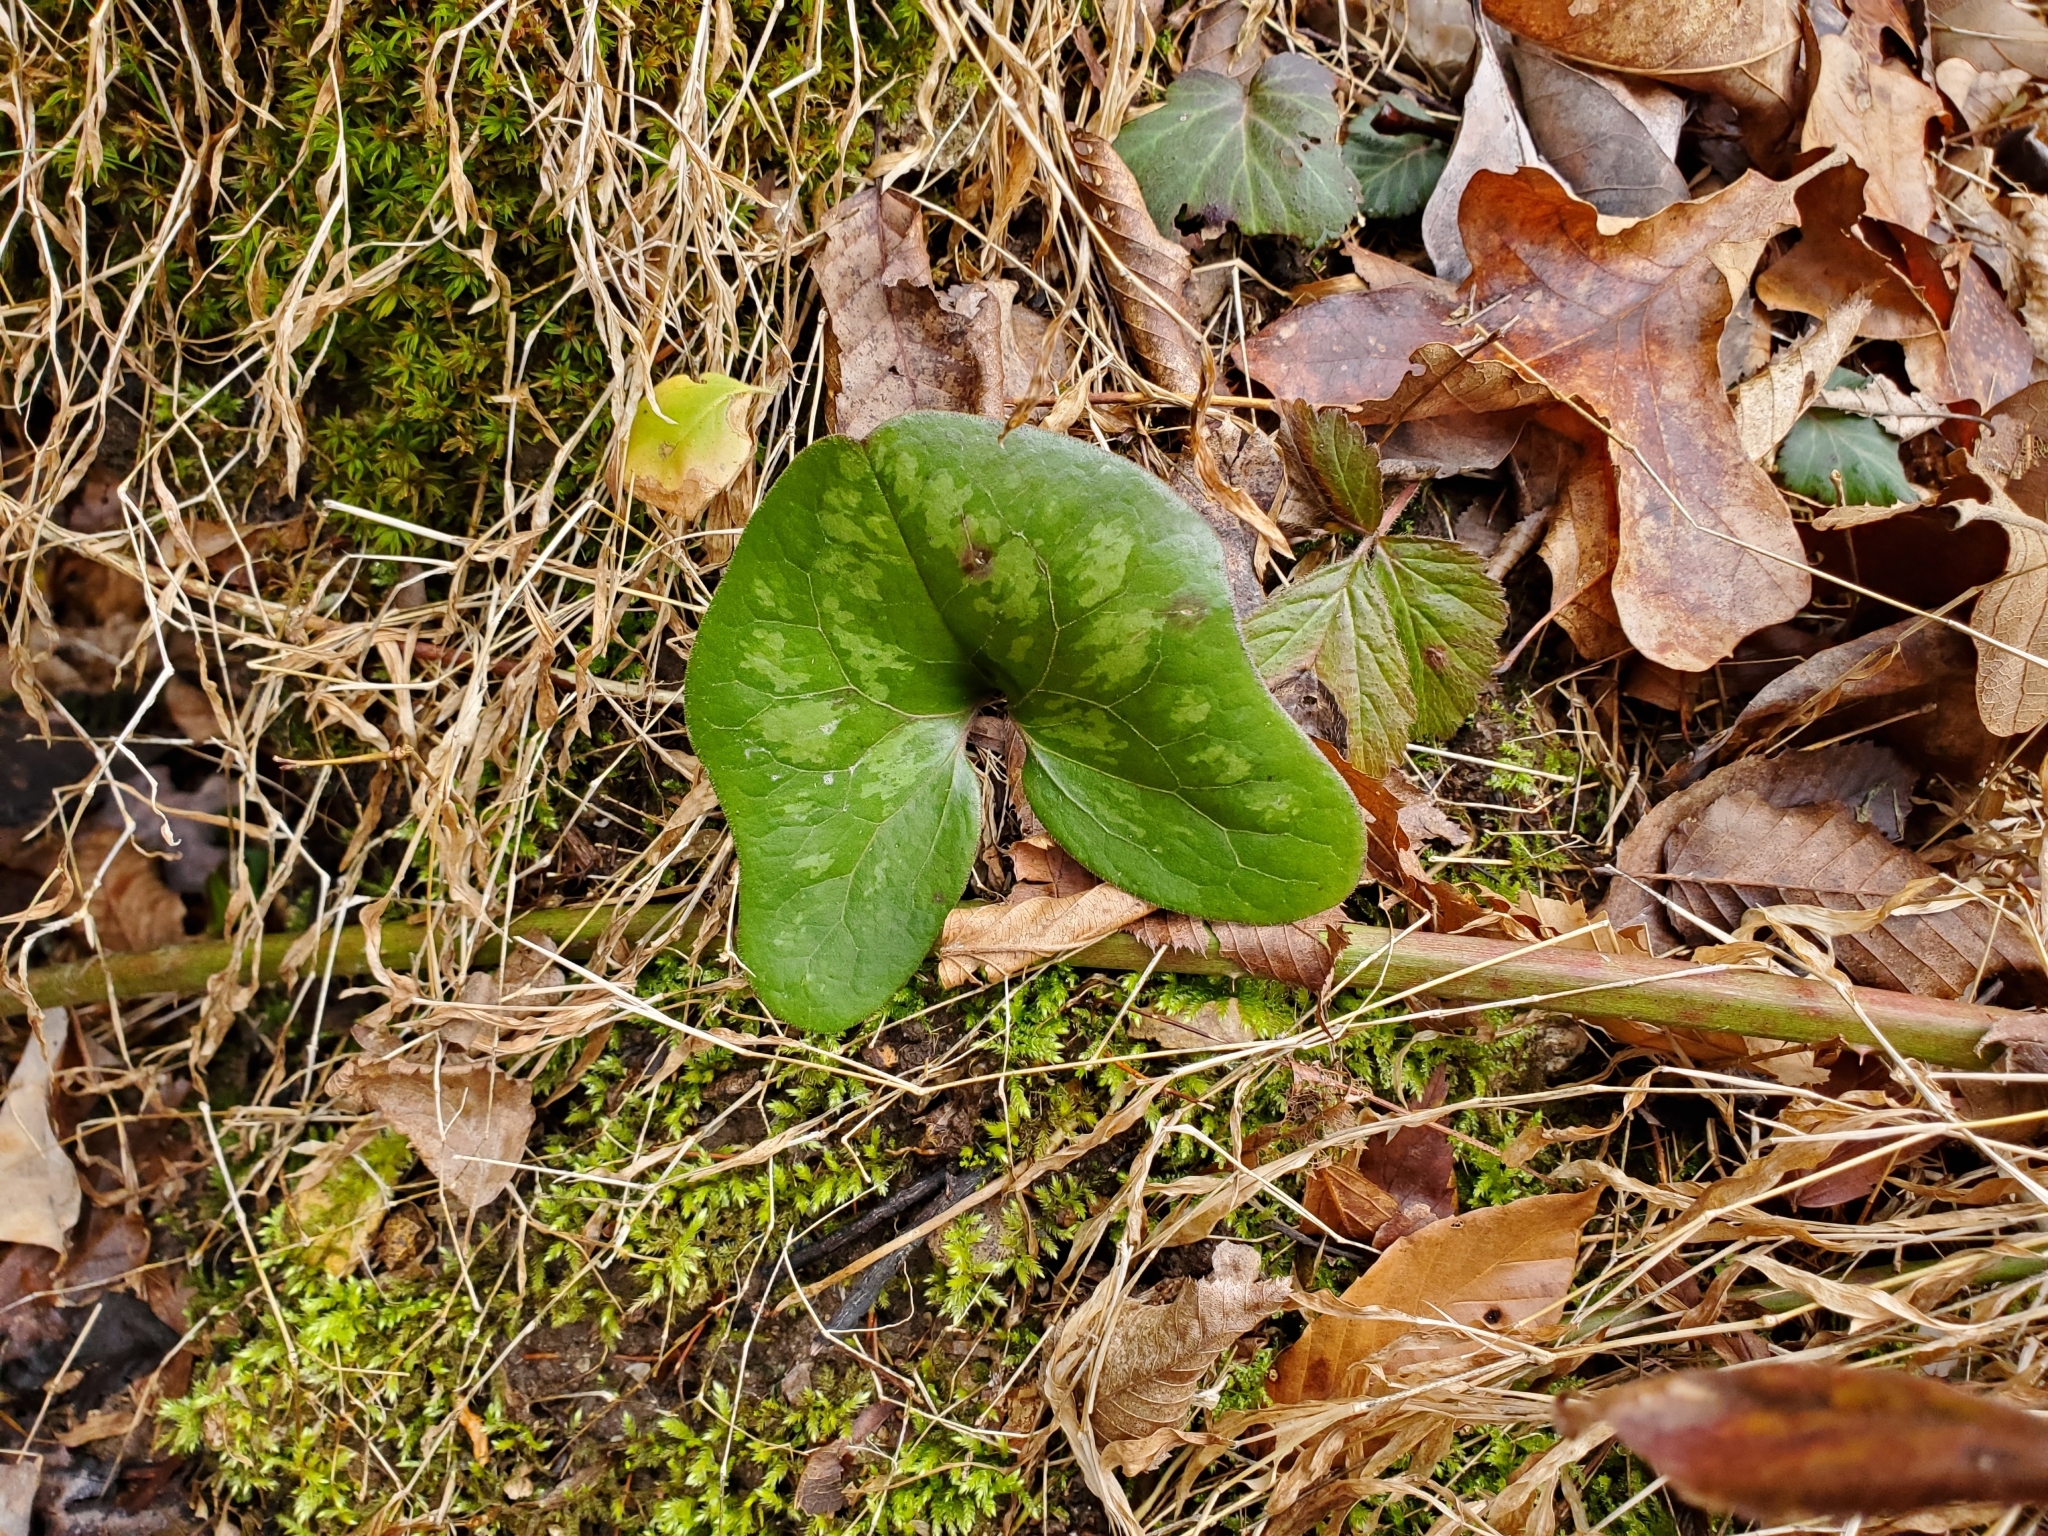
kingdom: Plantae
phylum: Tracheophyta
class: Magnoliopsida
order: Piperales
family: Aristolochiaceae
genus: Hexastylis
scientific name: Hexastylis arifolia
